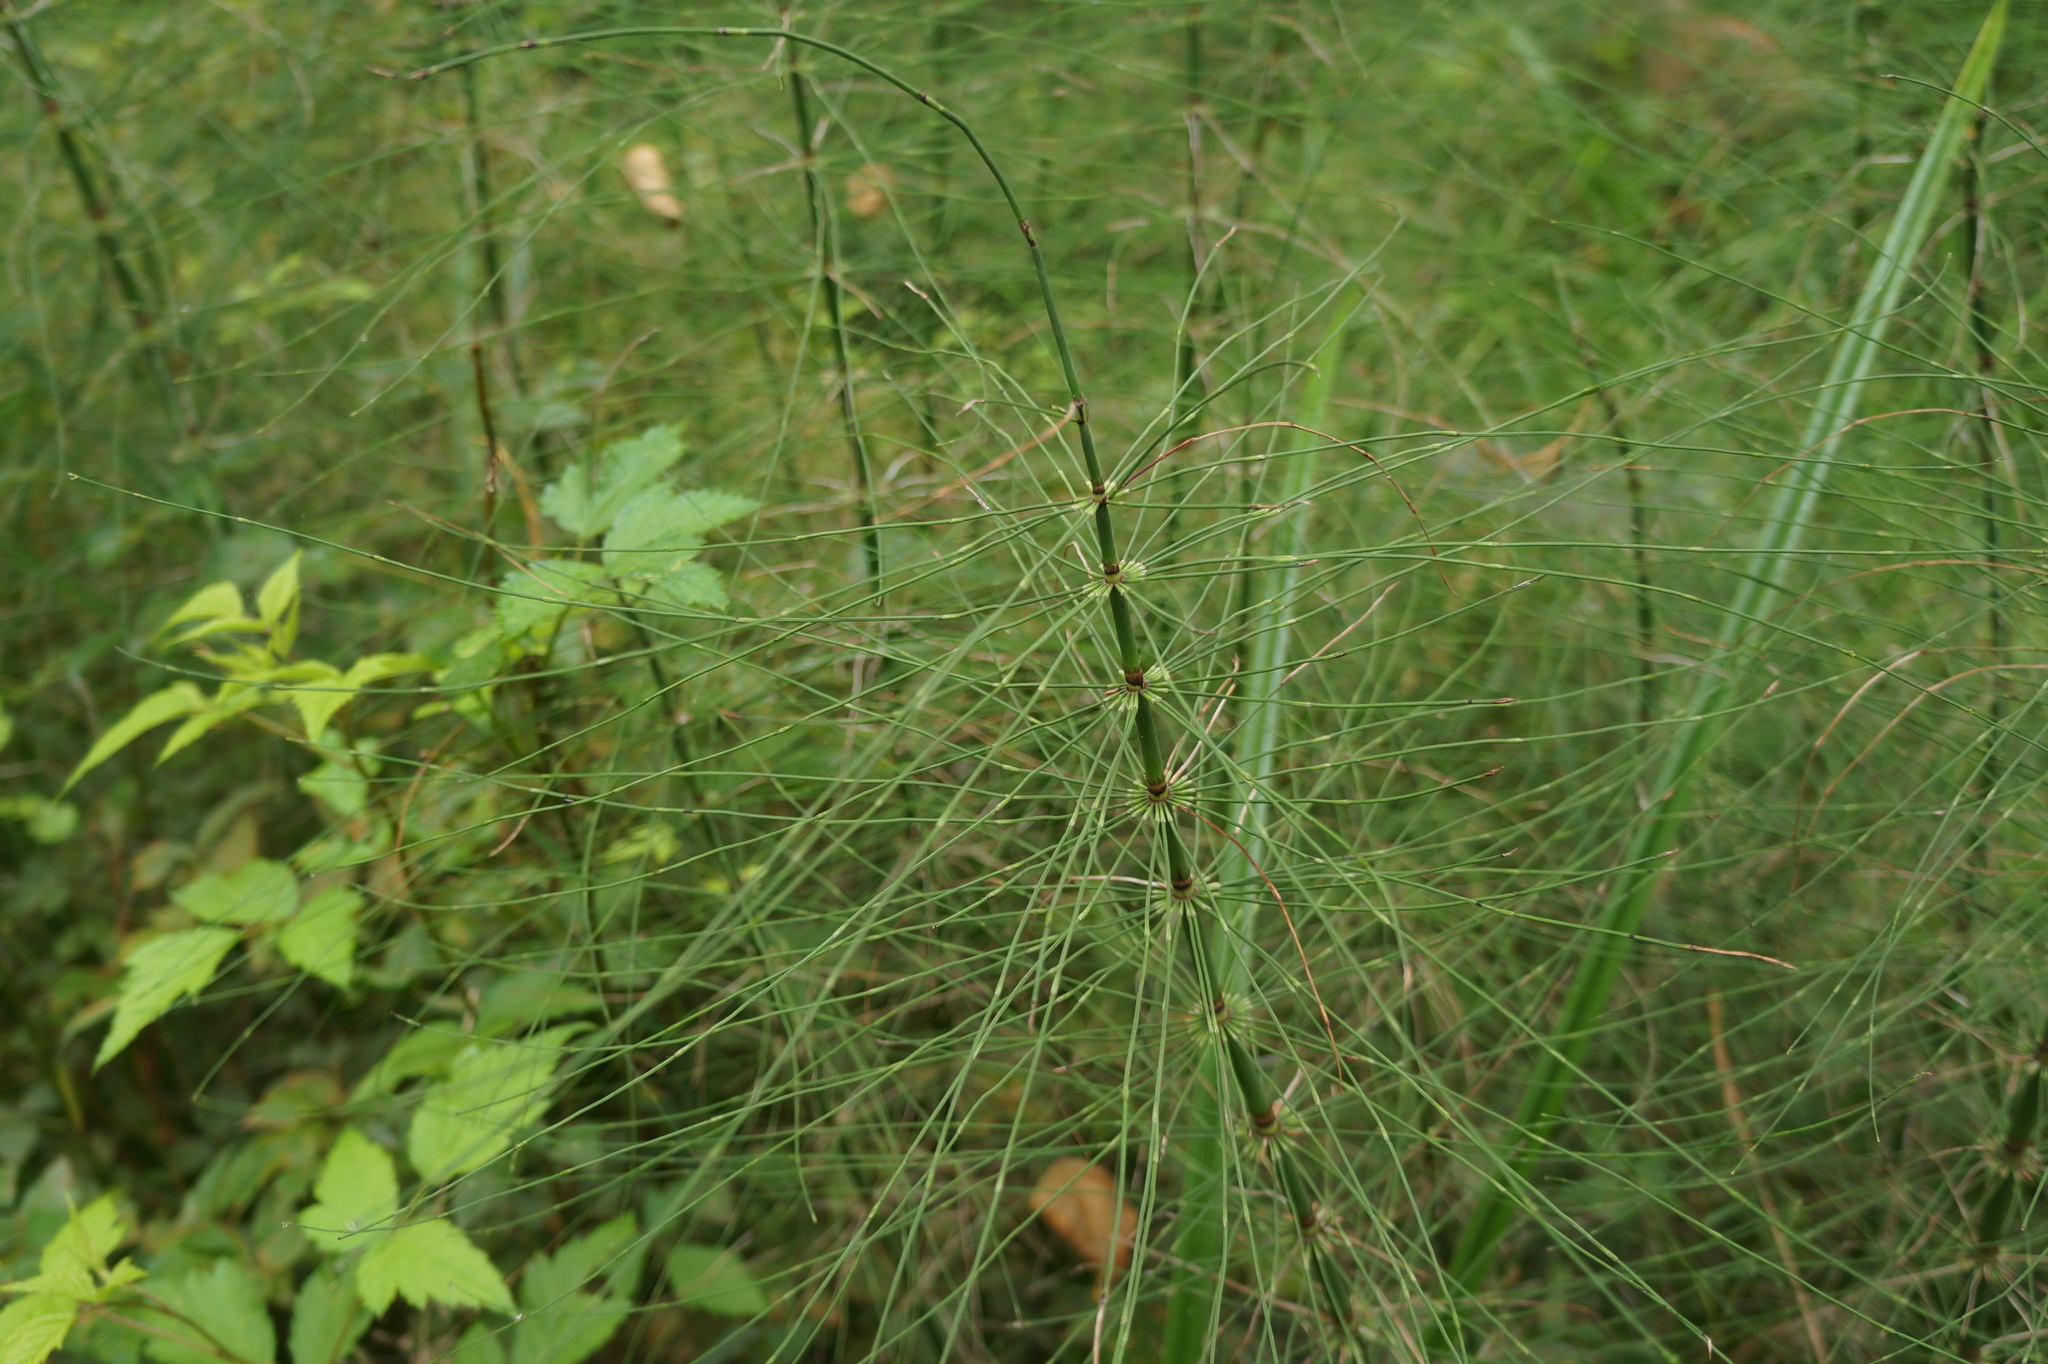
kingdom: Plantae
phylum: Tracheophyta
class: Polypodiopsida
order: Equisetales
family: Equisetaceae
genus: Equisetum
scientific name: Equisetum braunii
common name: Braun's horsetail
